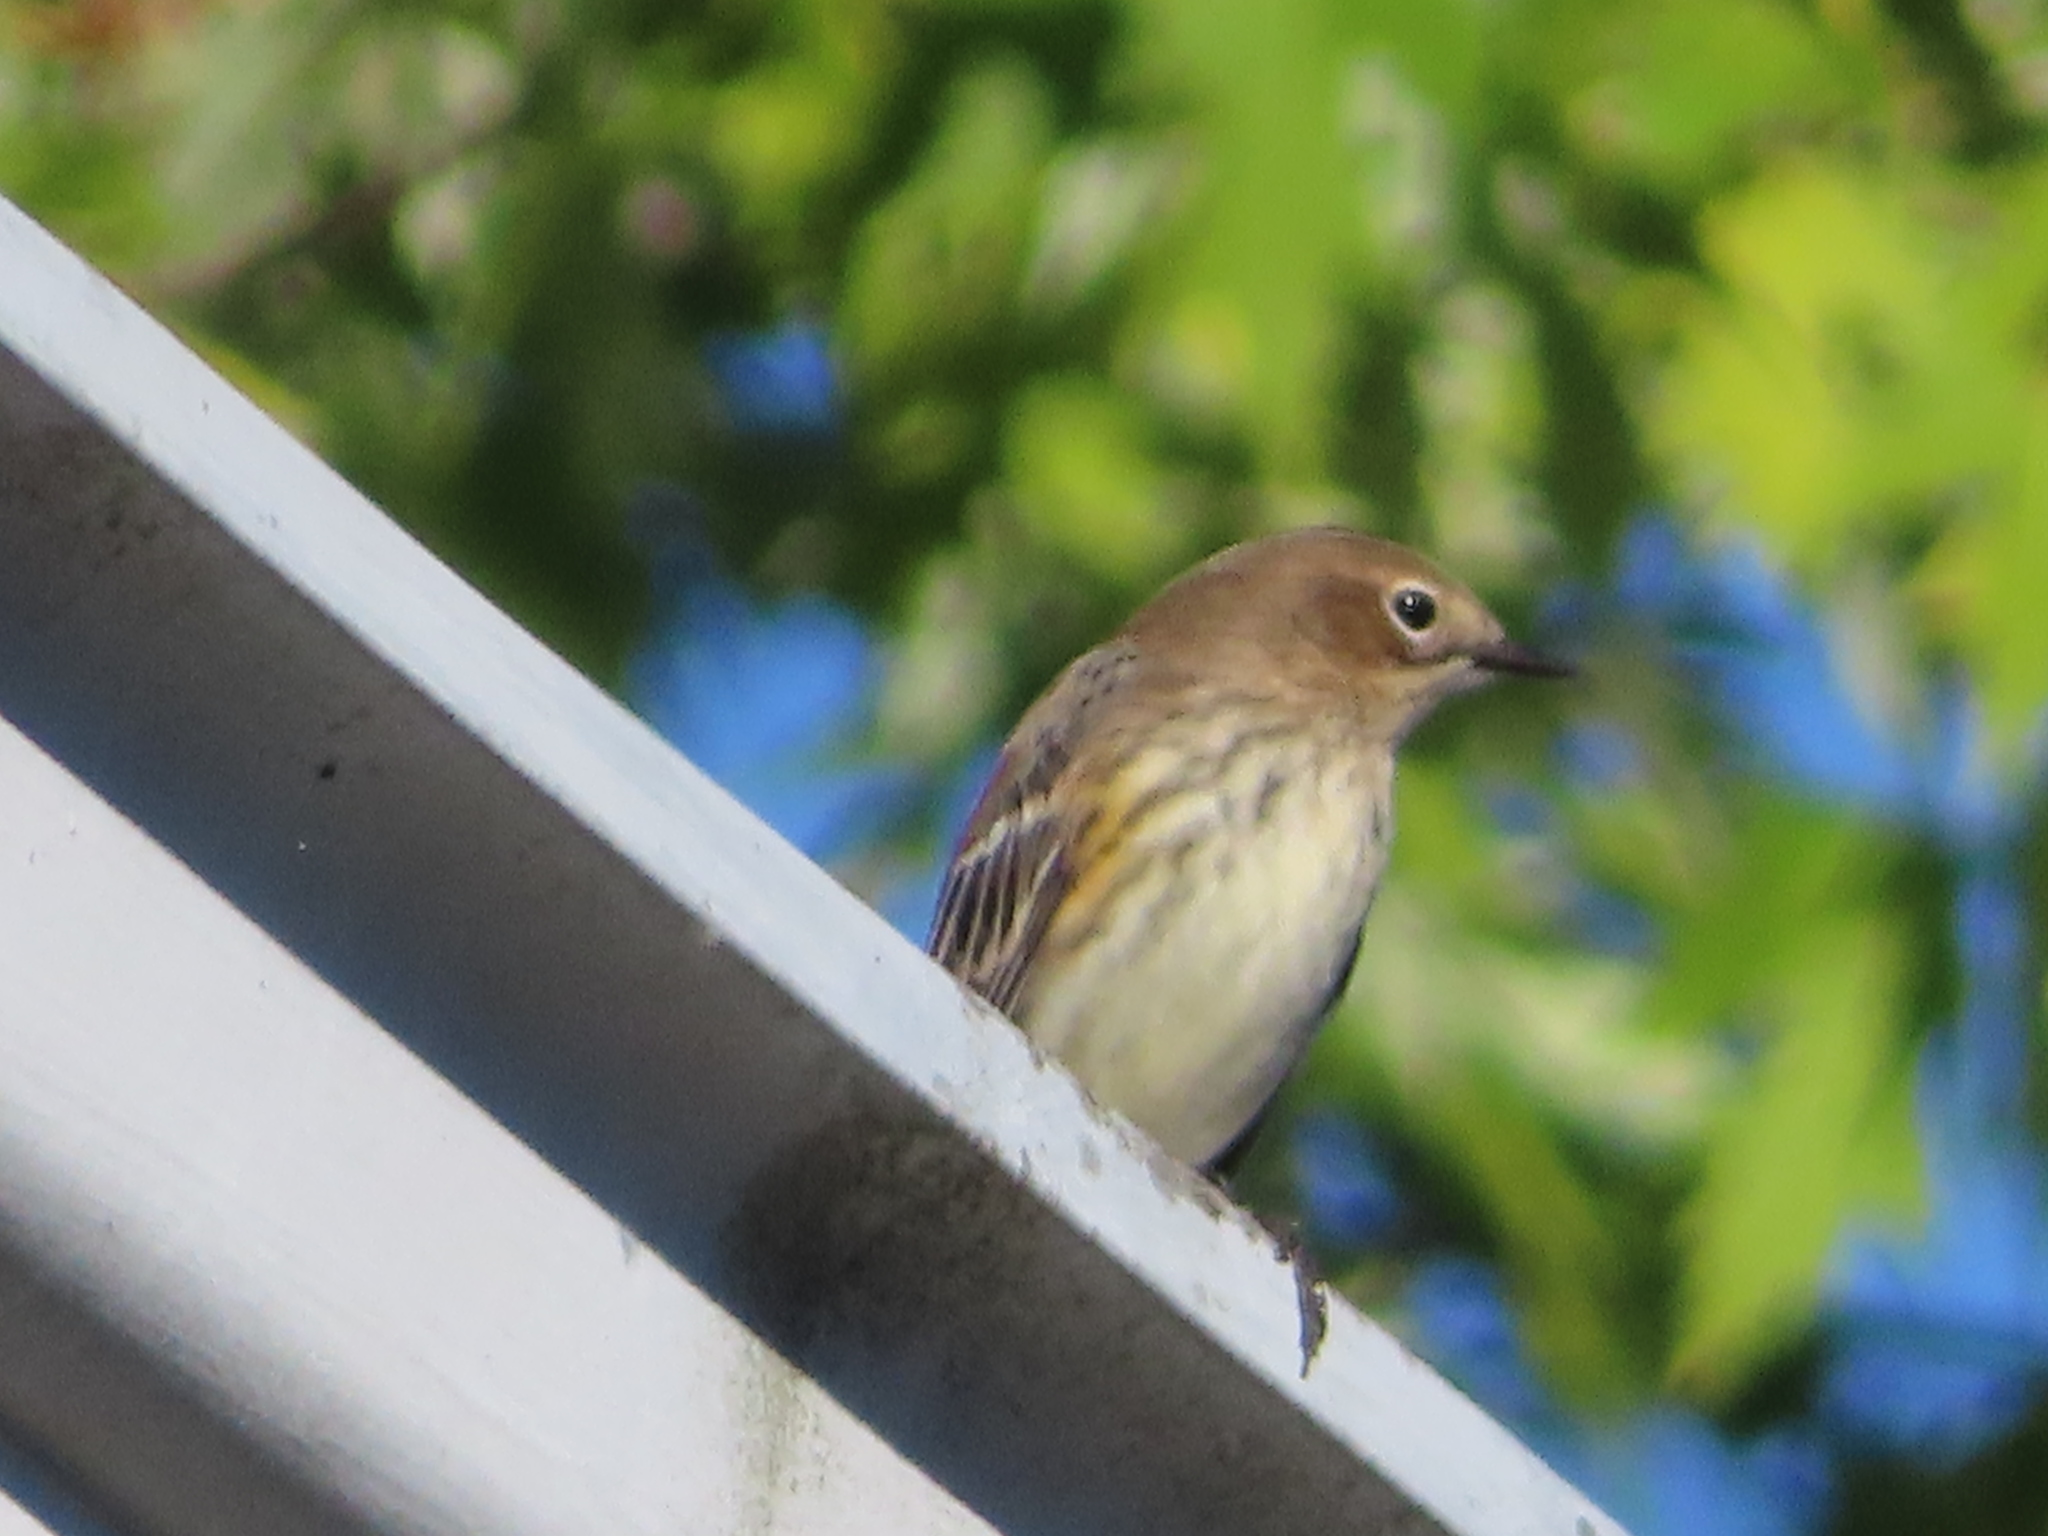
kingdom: Animalia
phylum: Chordata
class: Aves
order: Passeriformes
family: Parulidae
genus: Setophaga
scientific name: Setophaga coronata
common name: Myrtle warbler
